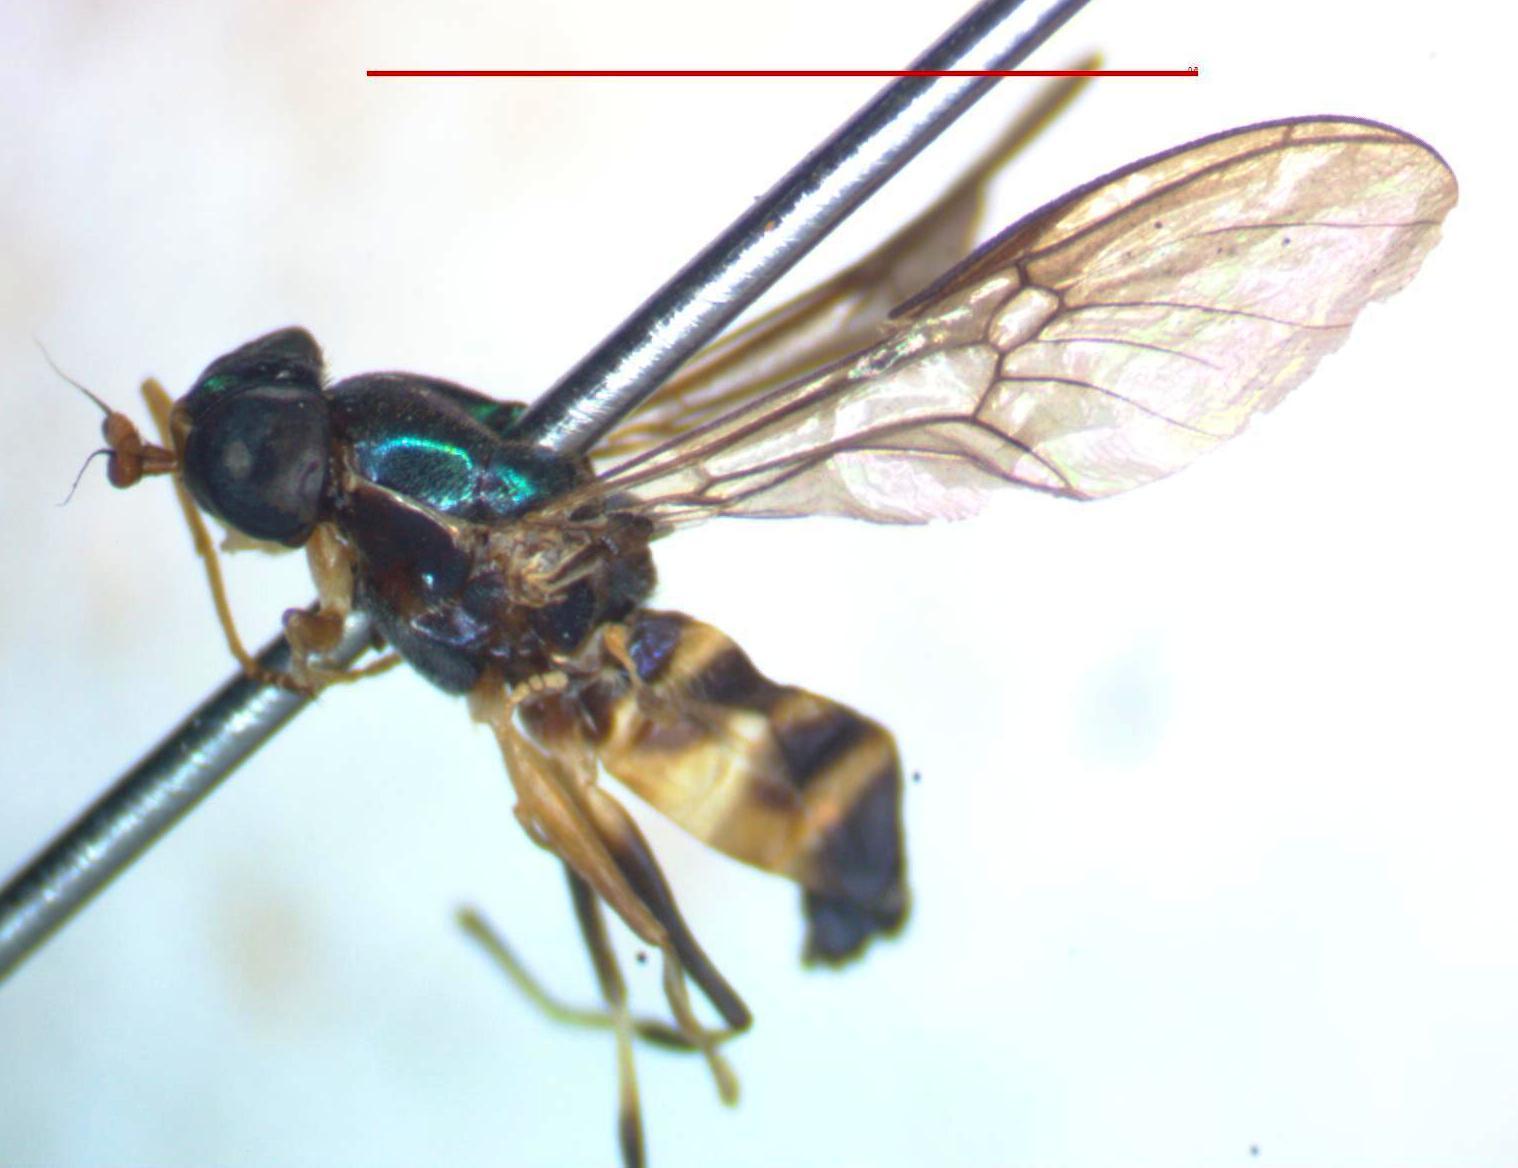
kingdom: Animalia
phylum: Arthropoda
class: Insecta
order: Diptera
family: Stratiomyidae
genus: Merosargus
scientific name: Merosargus cingulatus
